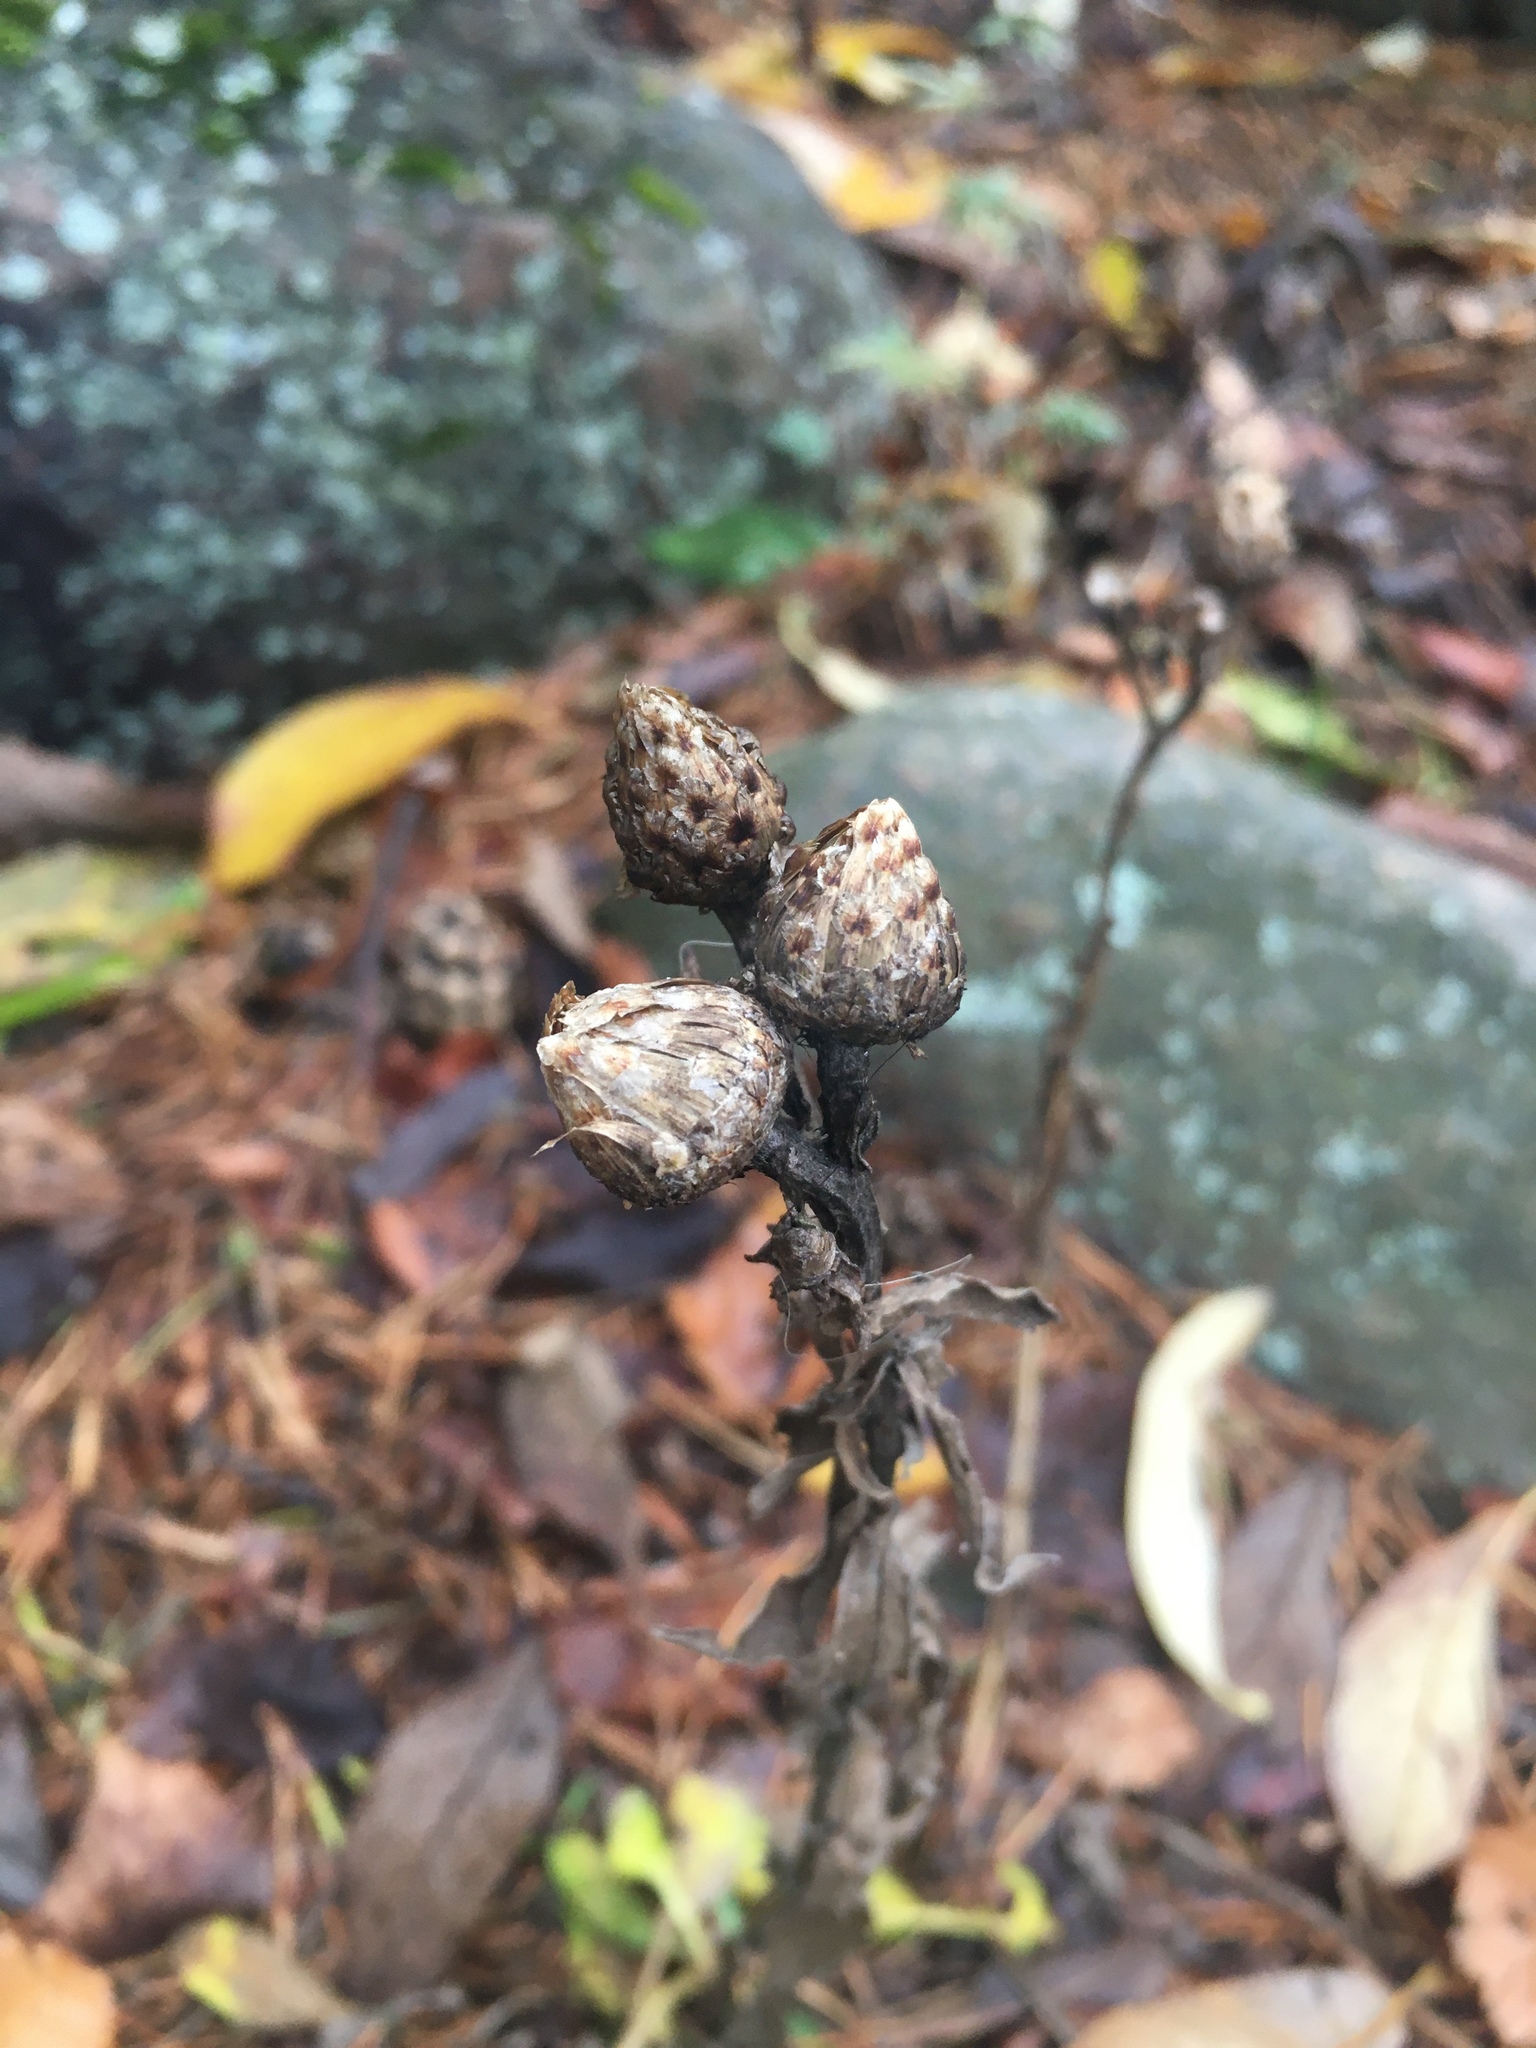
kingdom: Plantae
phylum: Tracheophyta
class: Magnoliopsida
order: Asterales
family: Asteraceae
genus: Centaurea
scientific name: Centaurea jacea
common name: Brown knapweed
